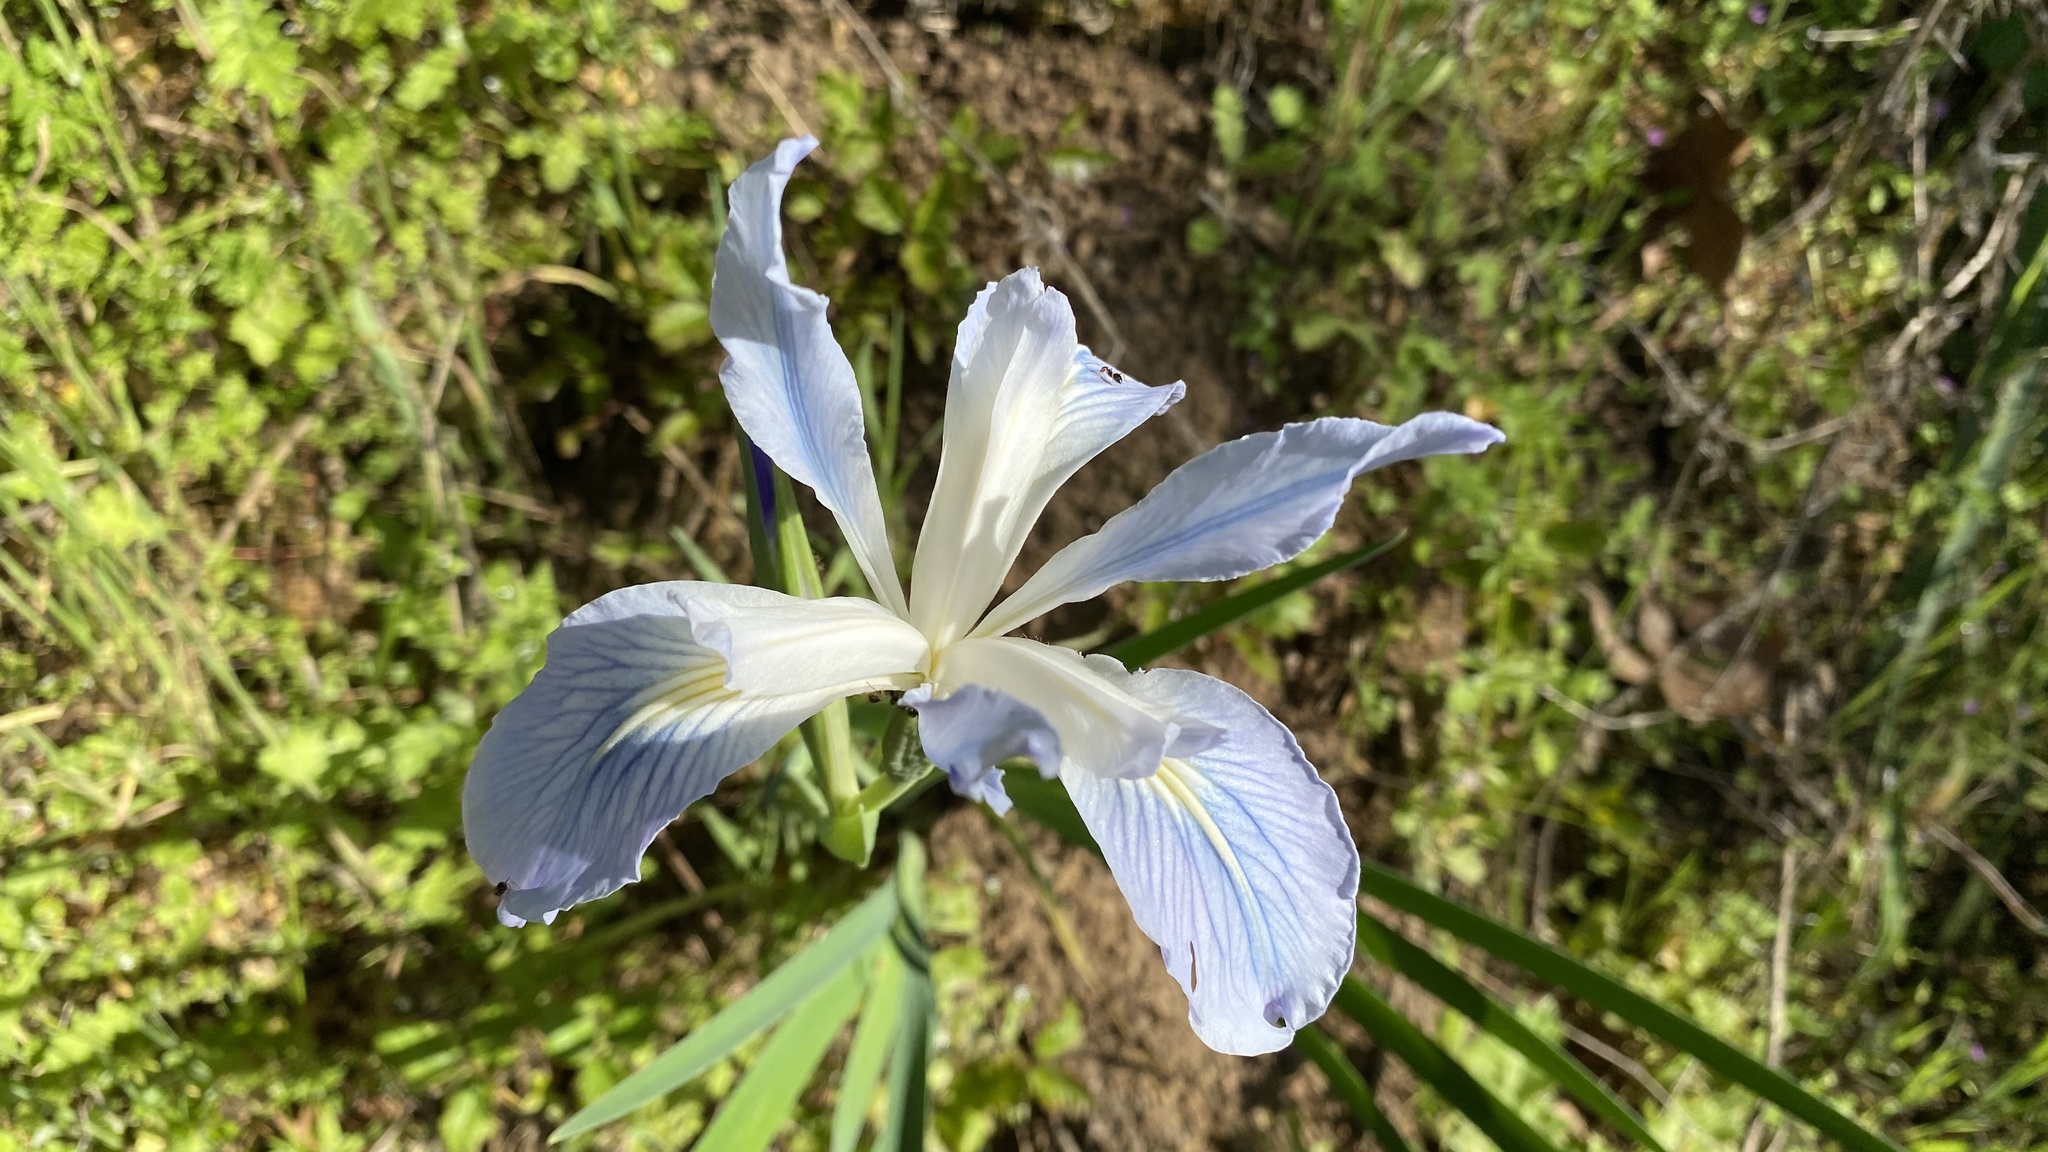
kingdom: Plantae
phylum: Tracheophyta
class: Liliopsida
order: Asparagales
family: Iridaceae
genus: Iris
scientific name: Iris munzii
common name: Munz's iris
